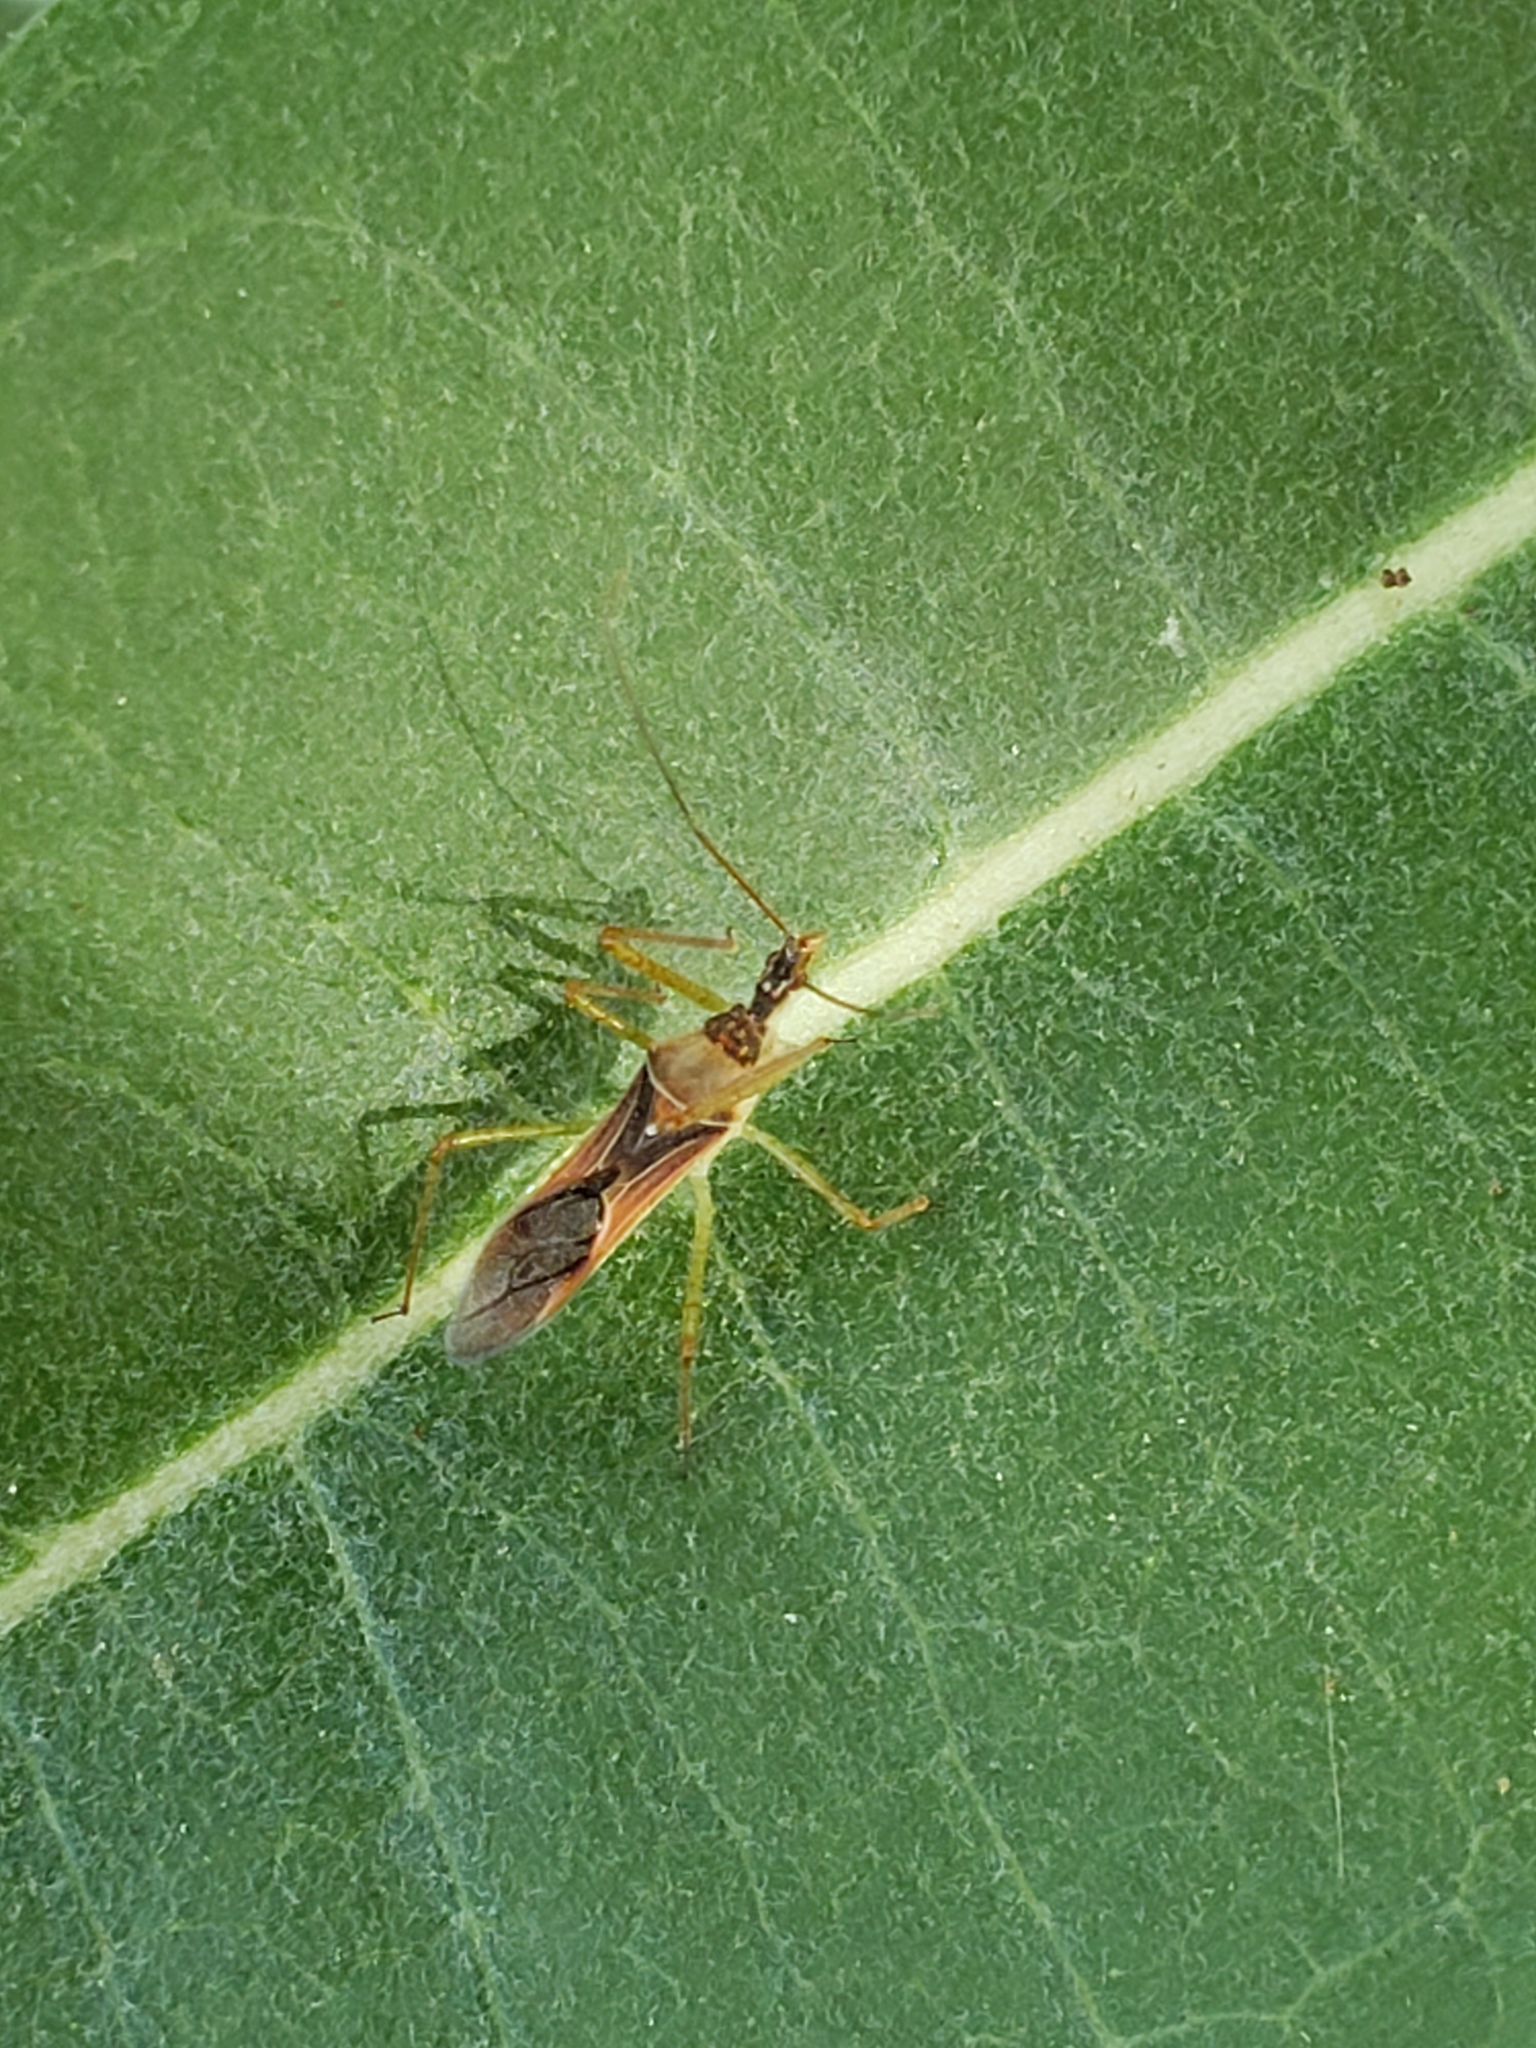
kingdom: Animalia
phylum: Arthropoda
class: Insecta
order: Hemiptera
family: Reduviidae
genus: Zelus
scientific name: Zelus renardii
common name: Assassin bug
